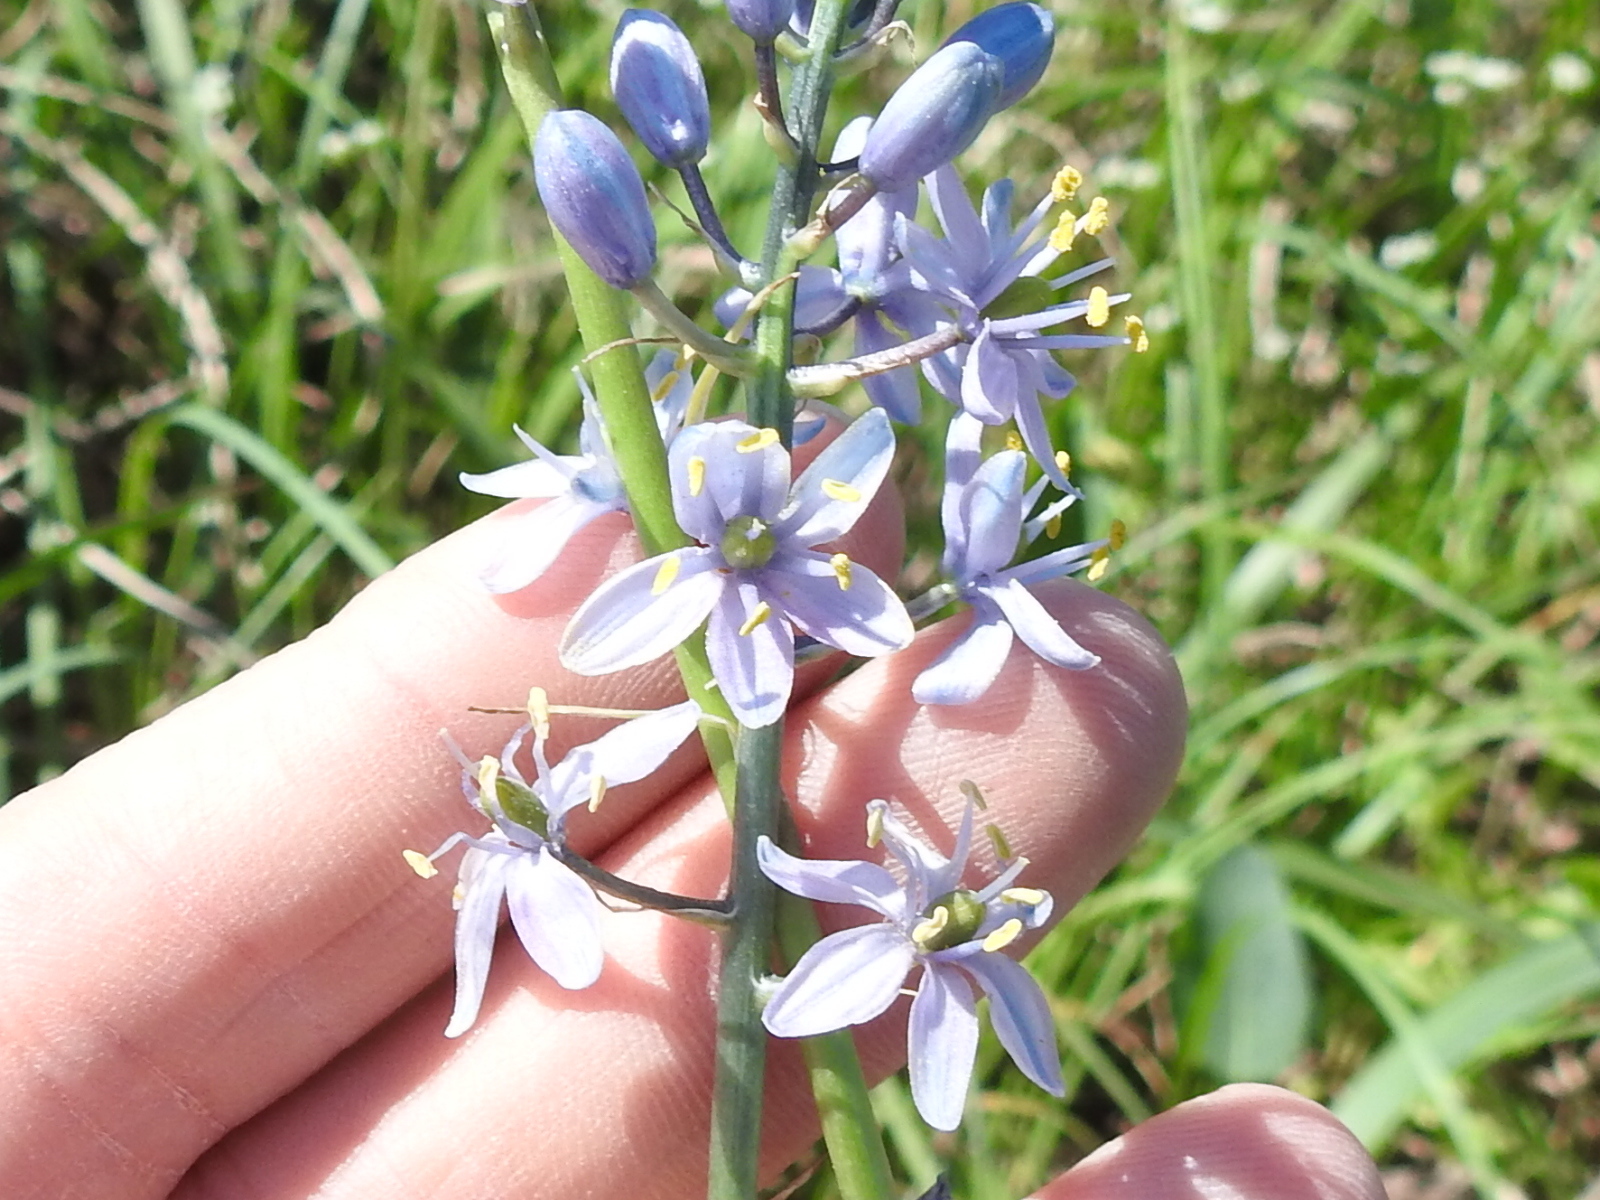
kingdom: Plantae
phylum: Tracheophyta
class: Liliopsida
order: Asparagales
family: Asparagaceae
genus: Camassia
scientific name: Camassia scilloides
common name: Wild hyacinth
